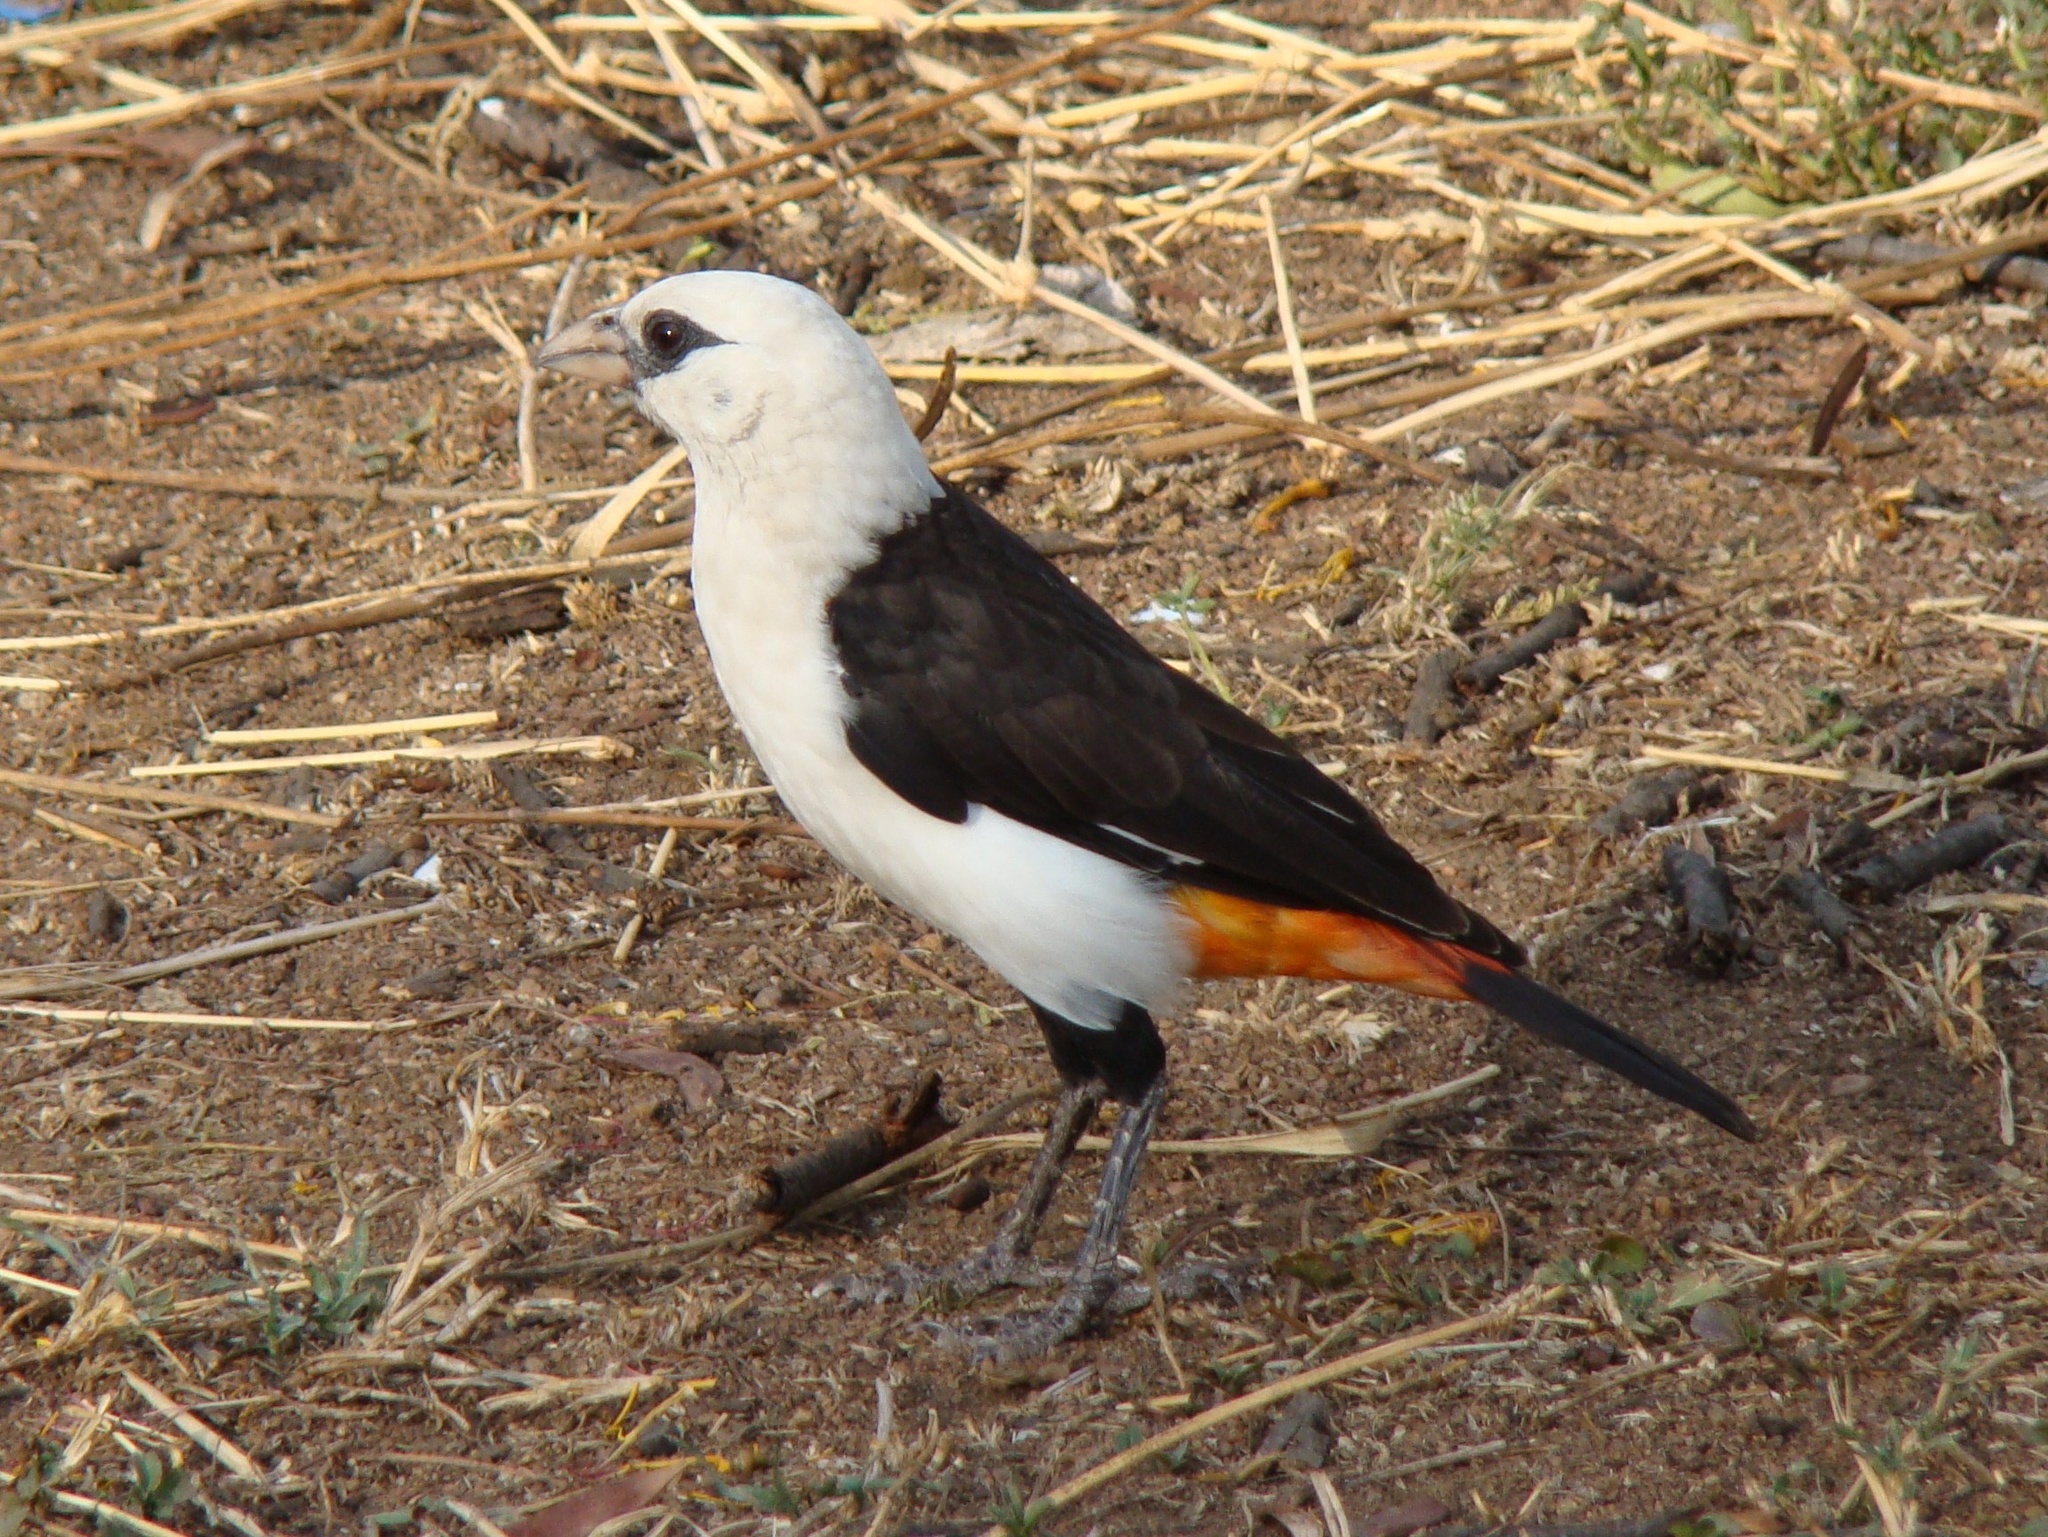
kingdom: Animalia
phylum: Chordata
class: Aves
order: Passeriformes
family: Ploceidae
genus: Dinemellia
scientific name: Dinemellia dinemelli
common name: White-headed buffalo weaver
